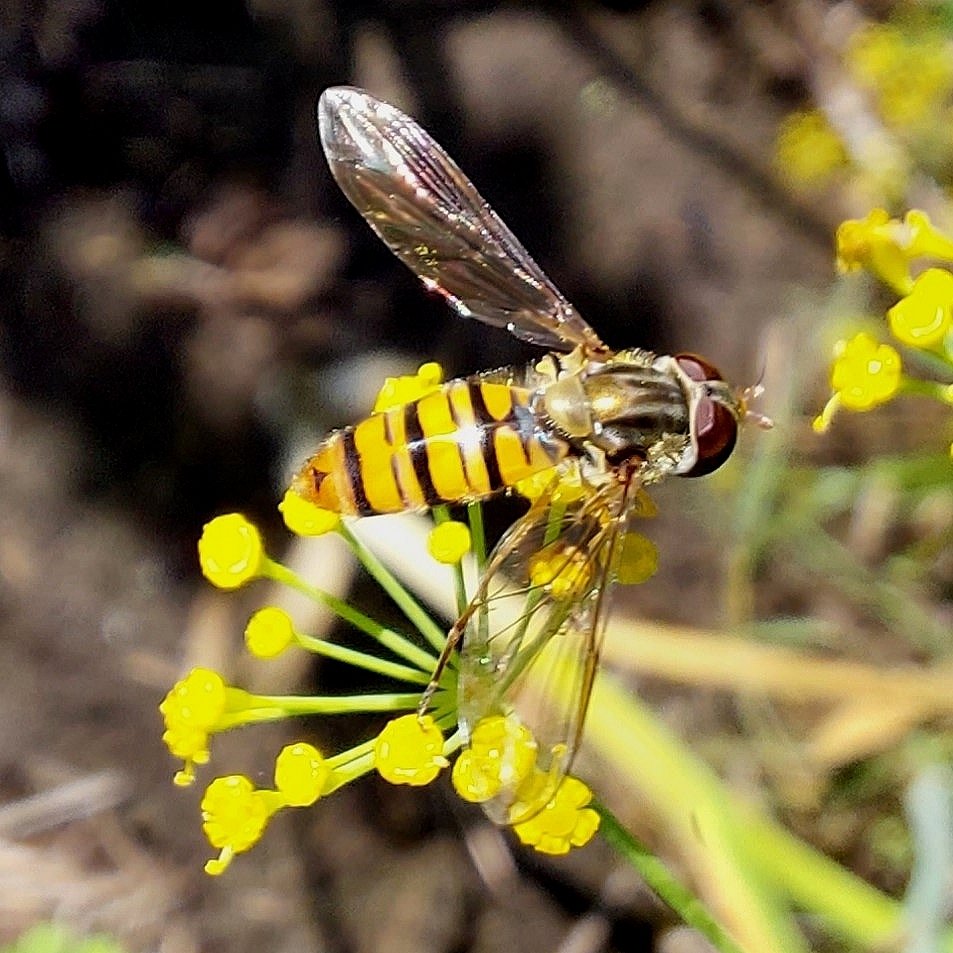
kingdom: Animalia
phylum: Arthropoda
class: Insecta
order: Diptera
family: Syrphidae
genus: Episyrphus
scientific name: Episyrphus balteatus
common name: Marmalade hoverfly
